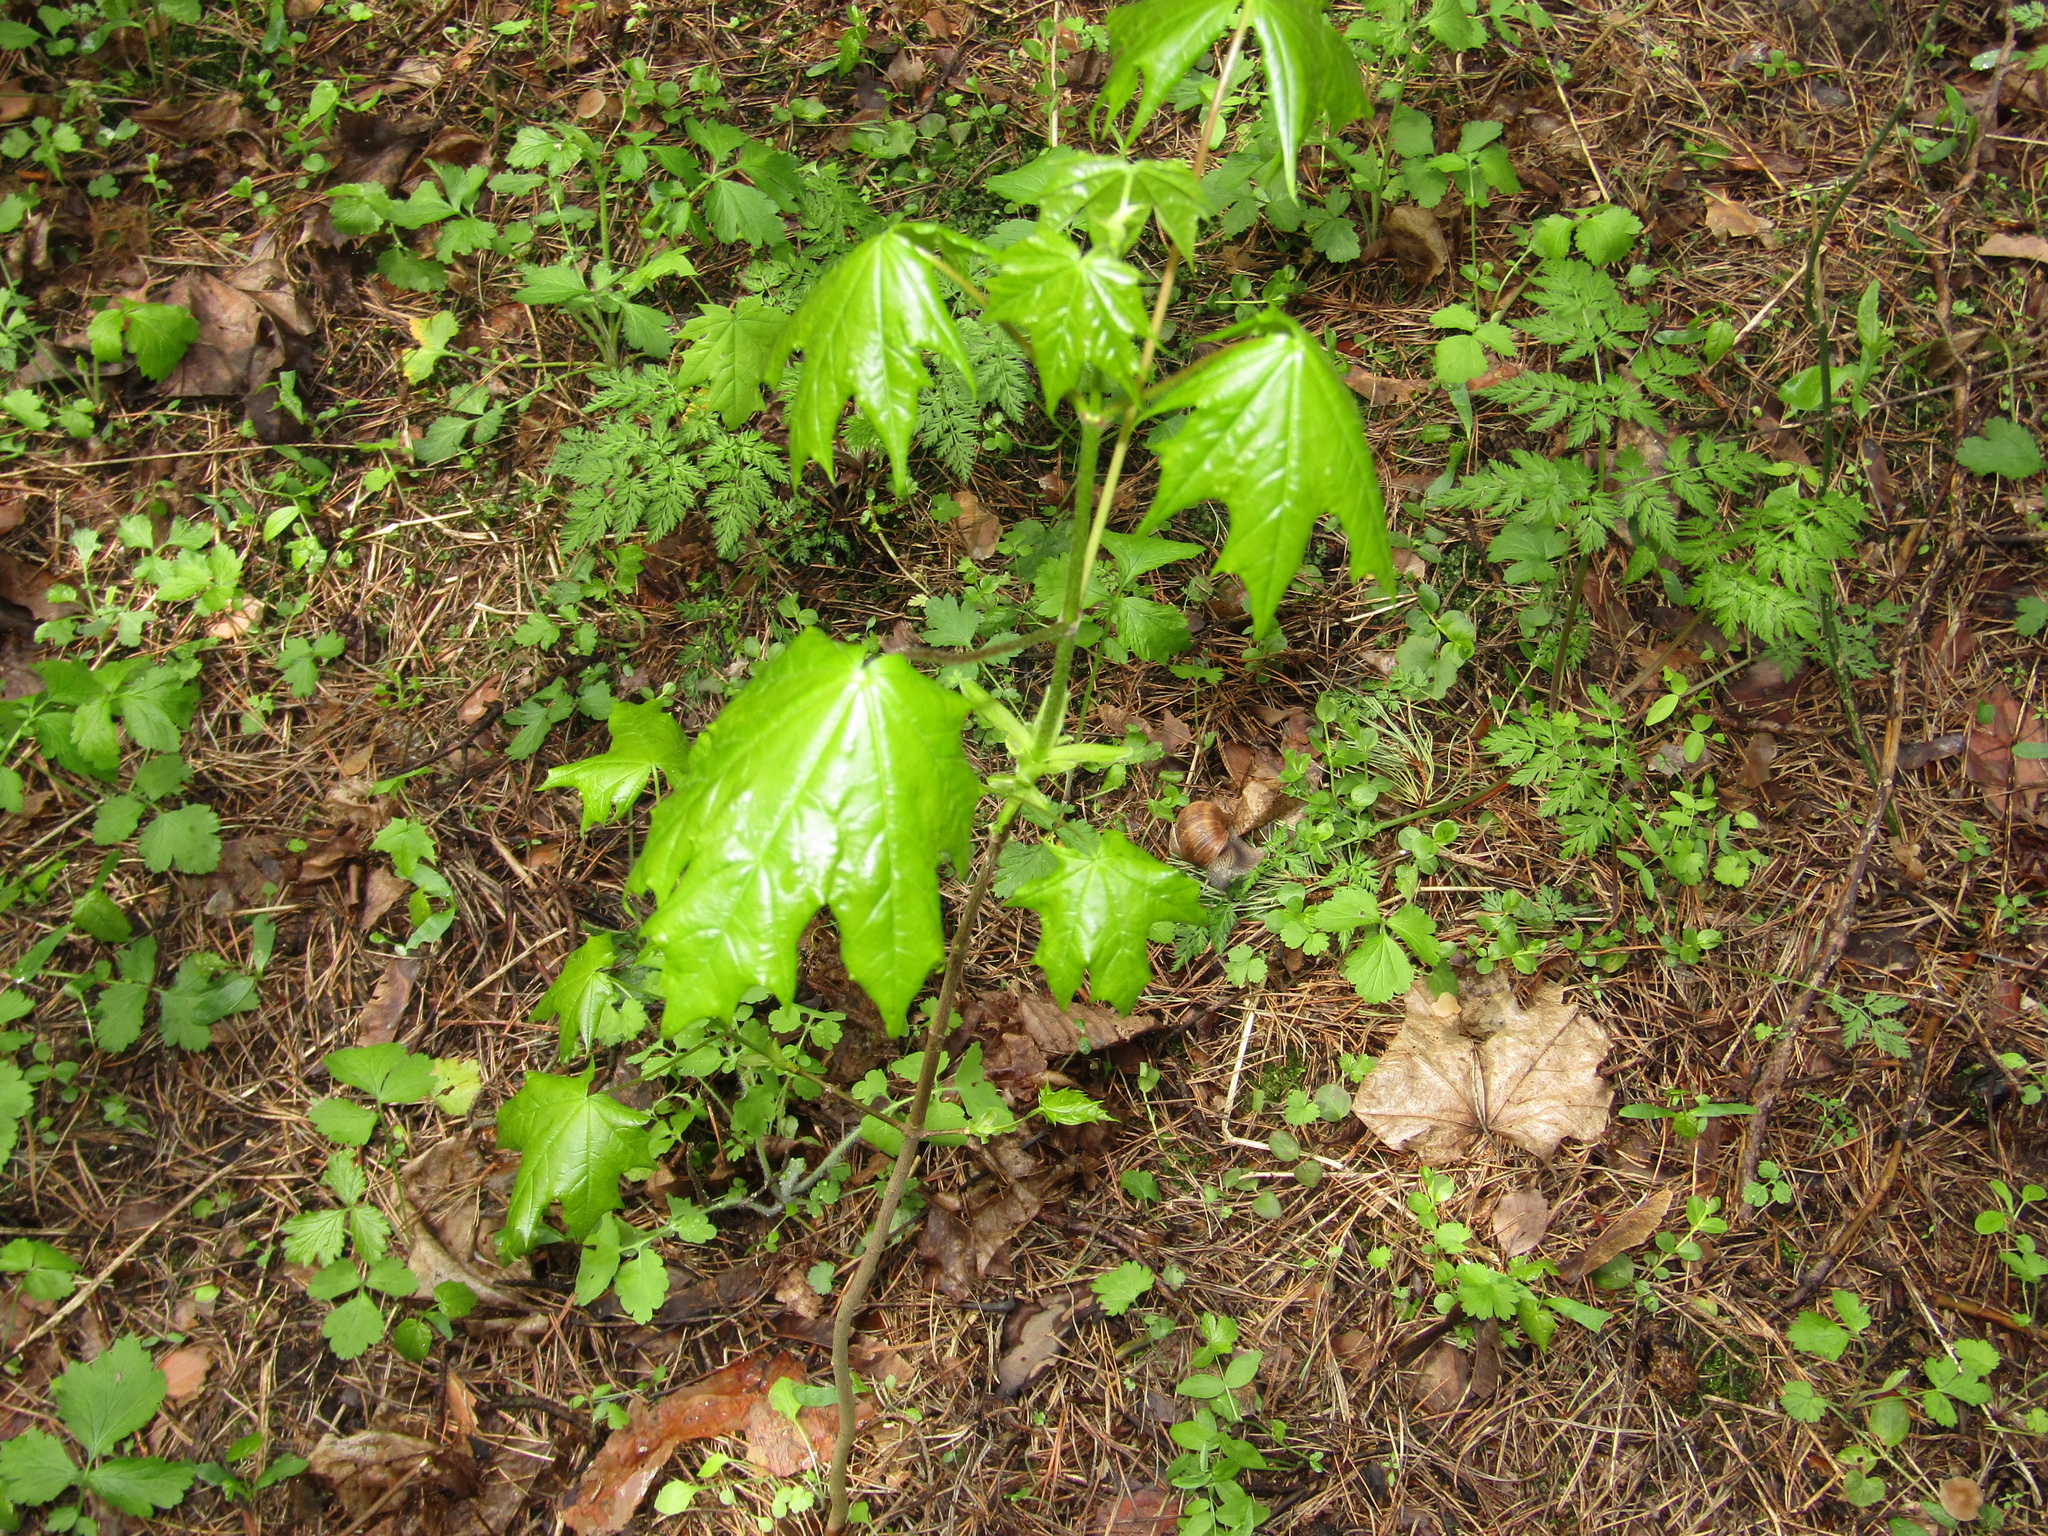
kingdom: Plantae
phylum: Tracheophyta
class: Magnoliopsida
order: Sapindales
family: Sapindaceae
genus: Acer
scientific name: Acer platanoides
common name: Norway maple
